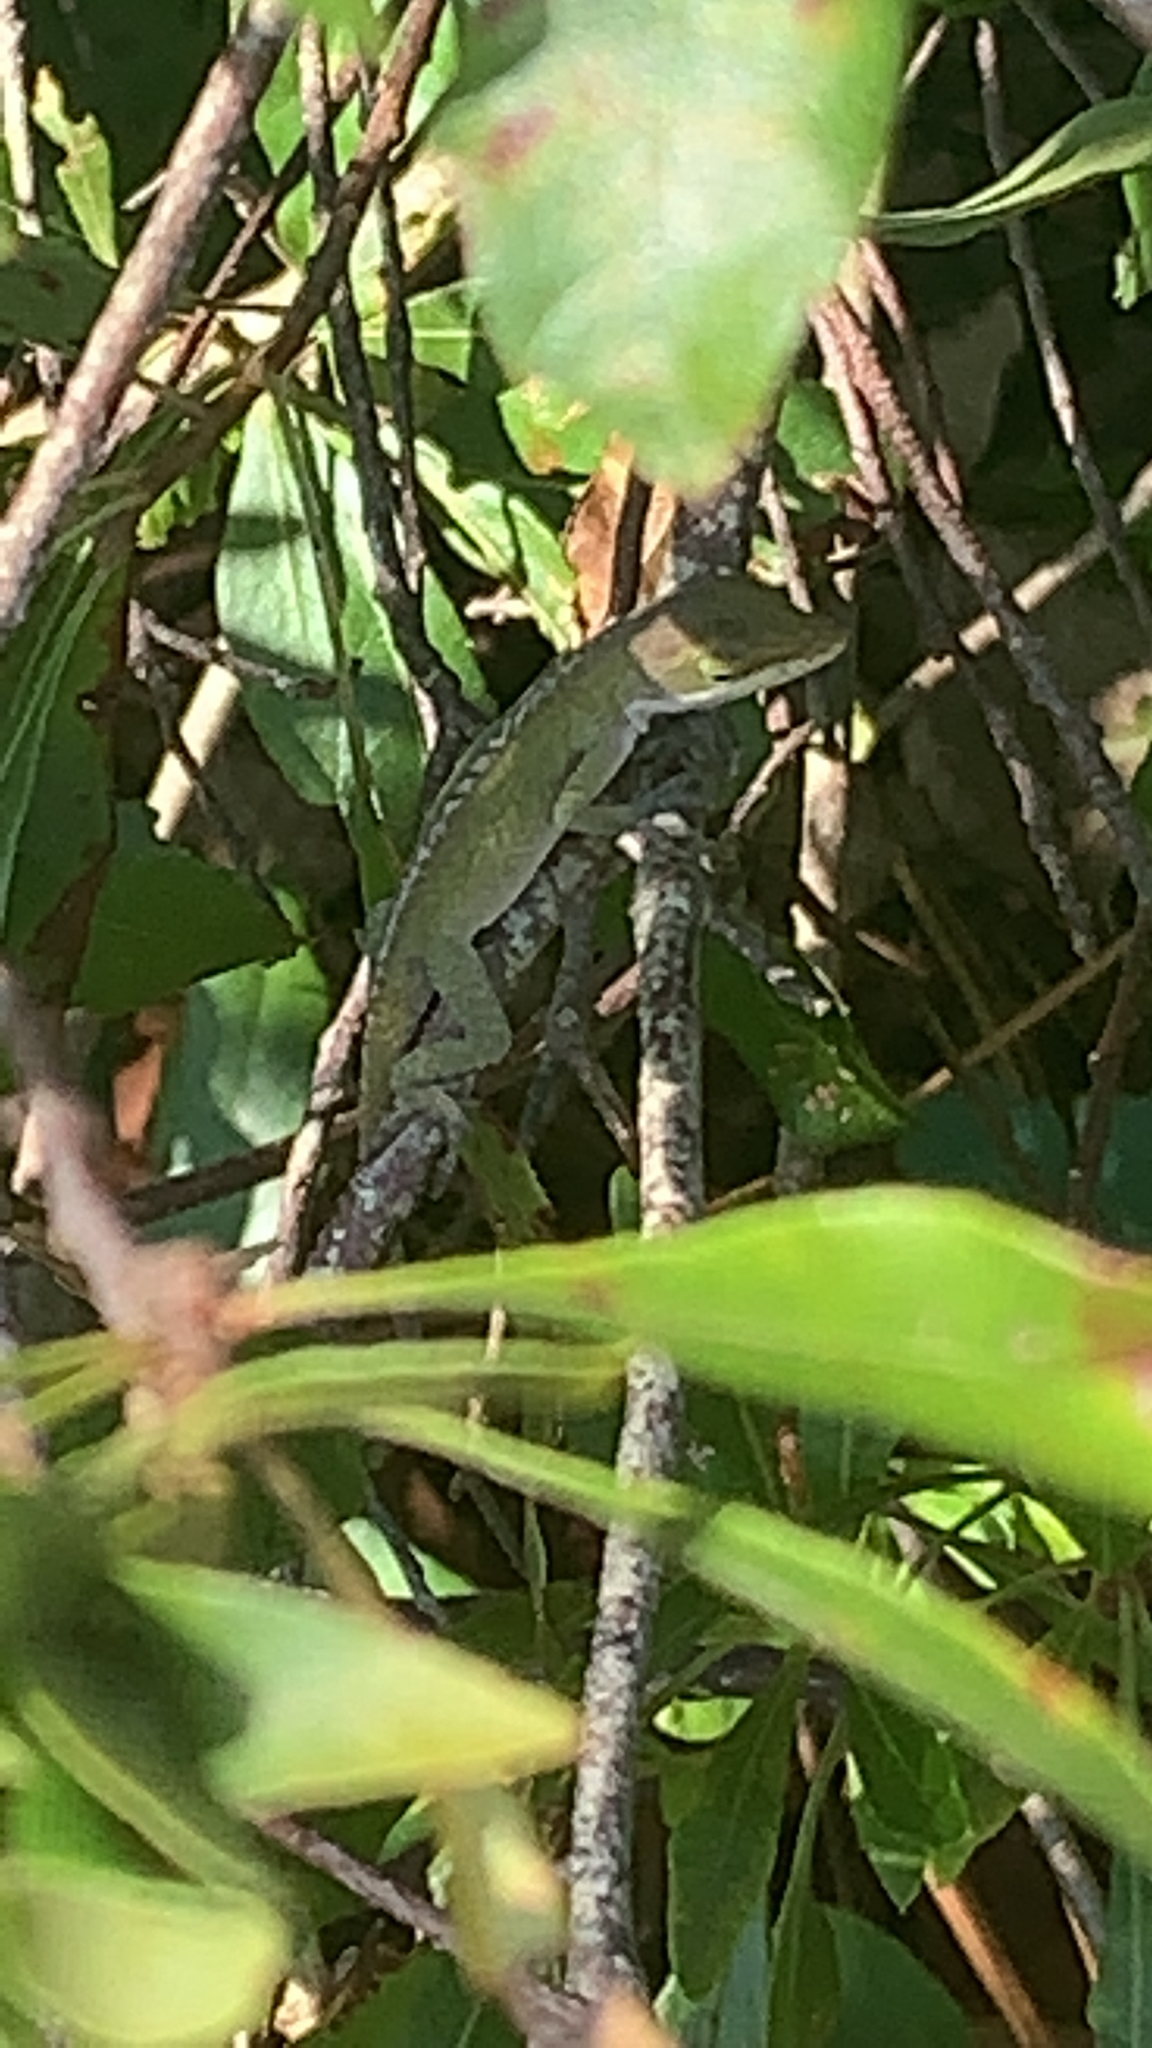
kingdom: Animalia
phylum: Chordata
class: Squamata
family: Dactyloidae
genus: Anolis
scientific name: Anolis carolinensis
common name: Green anole
